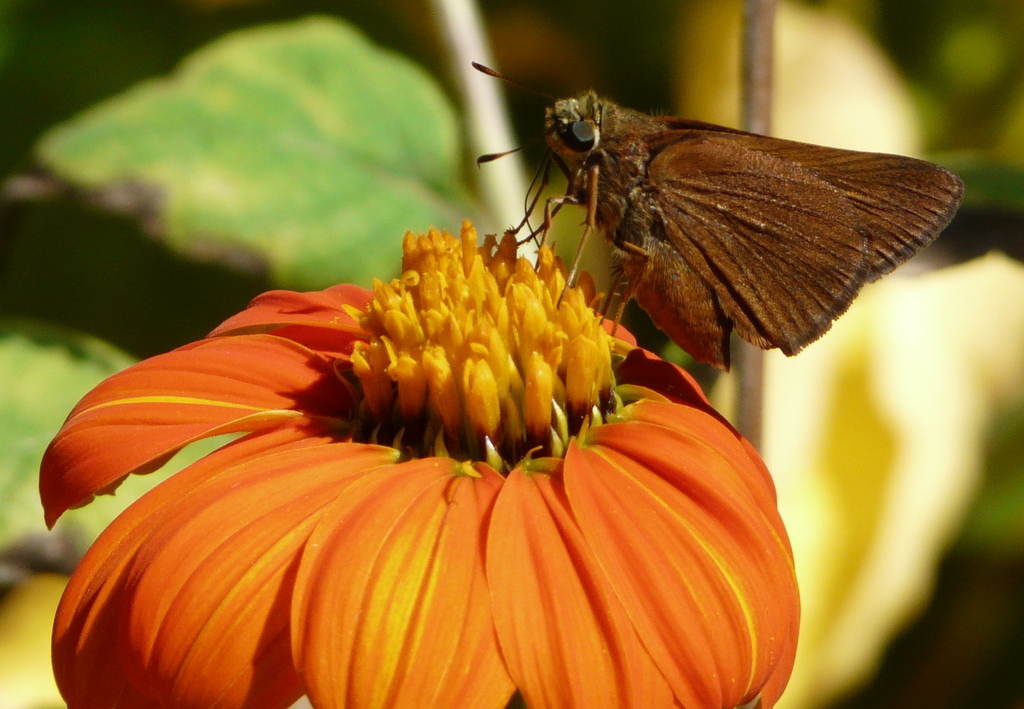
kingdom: Animalia
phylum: Arthropoda
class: Insecta
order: Lepidoptera
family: Hesperiidae
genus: Euphyes
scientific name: Euphyes singularis
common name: Singularis skipper
